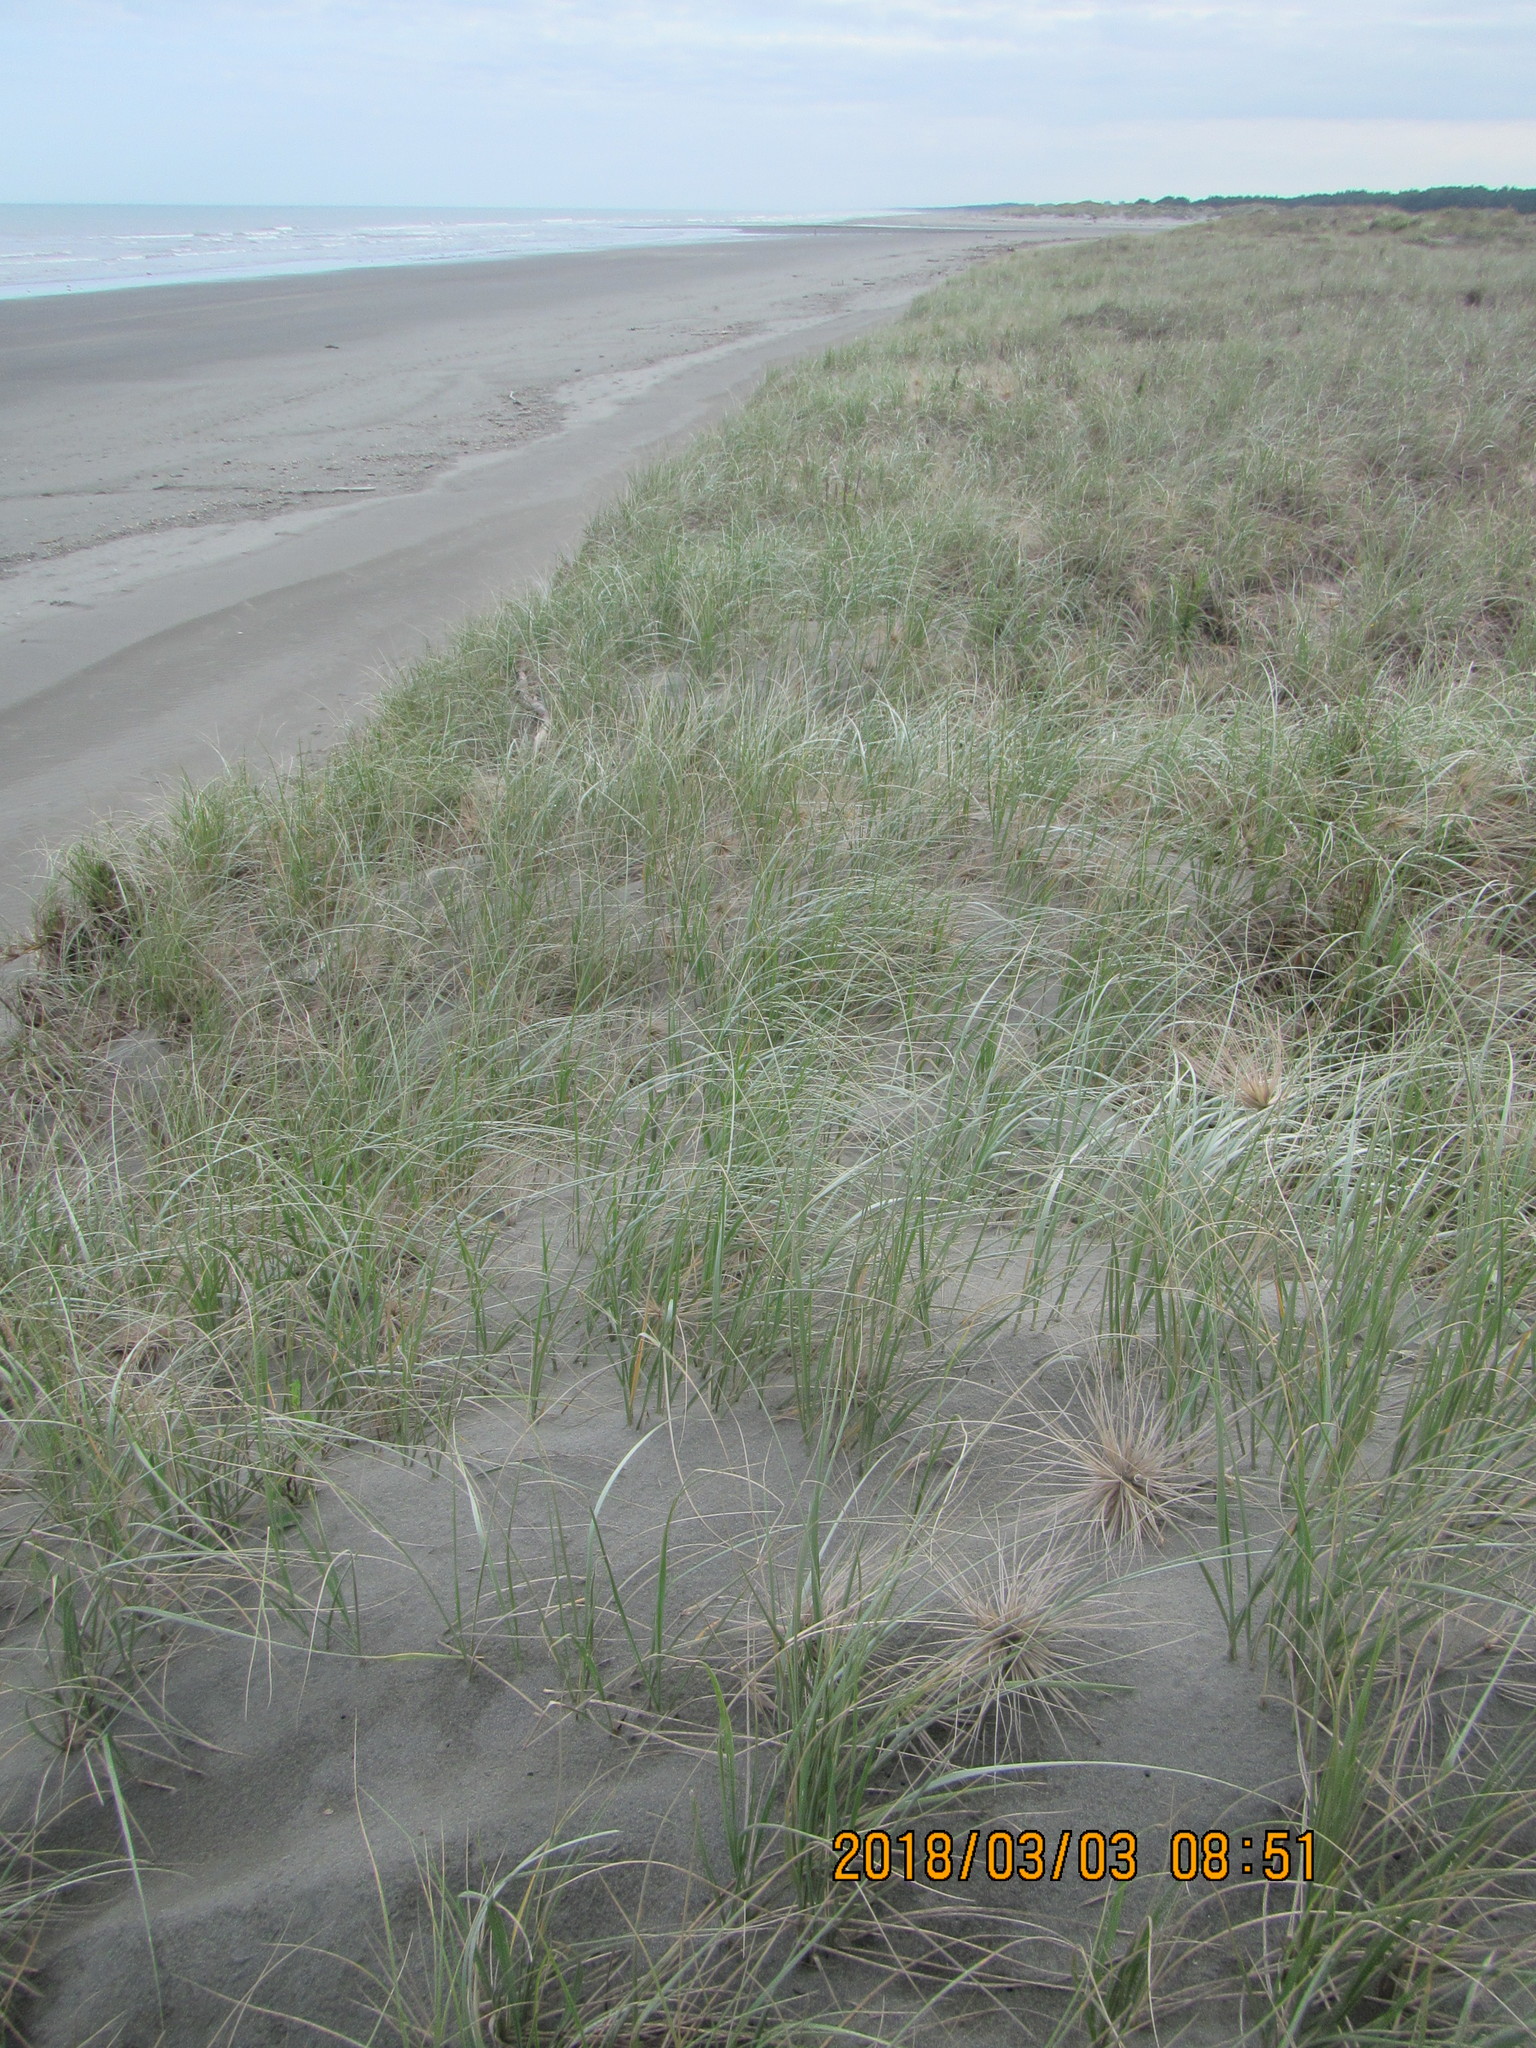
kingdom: Plantae
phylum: Tracheophyta
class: Liliopsida
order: Poales
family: Poaceae
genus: Spinifex
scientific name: Spinifex sericeus
